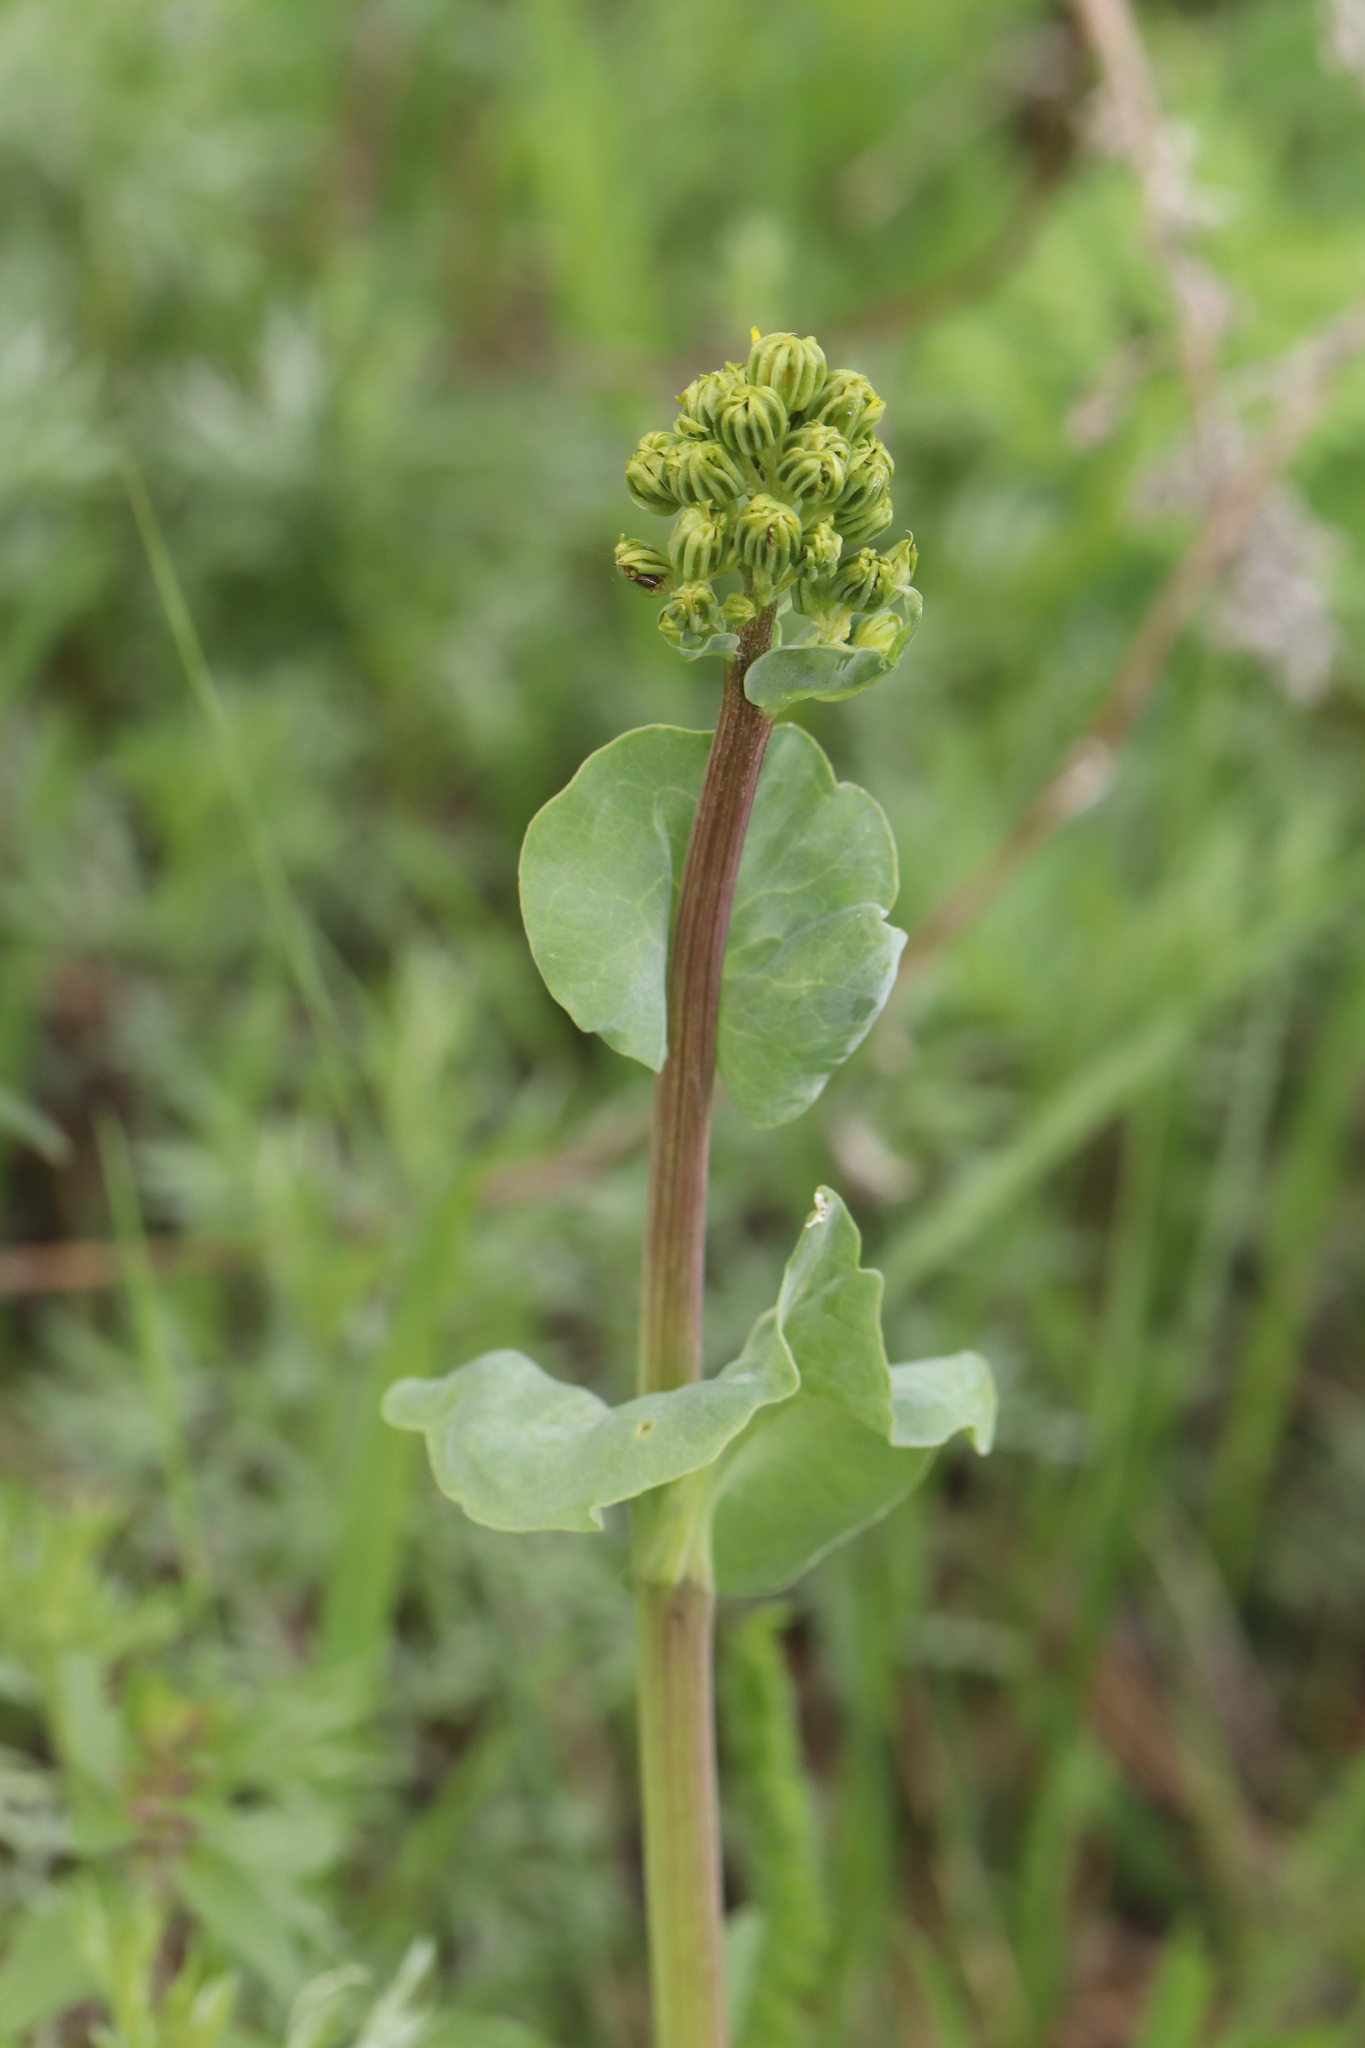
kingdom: Plantae
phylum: Tracheophyta
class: Magnoliopsida
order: Asterales
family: Asteraceae
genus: Ligularia
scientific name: Ligularia glauca
